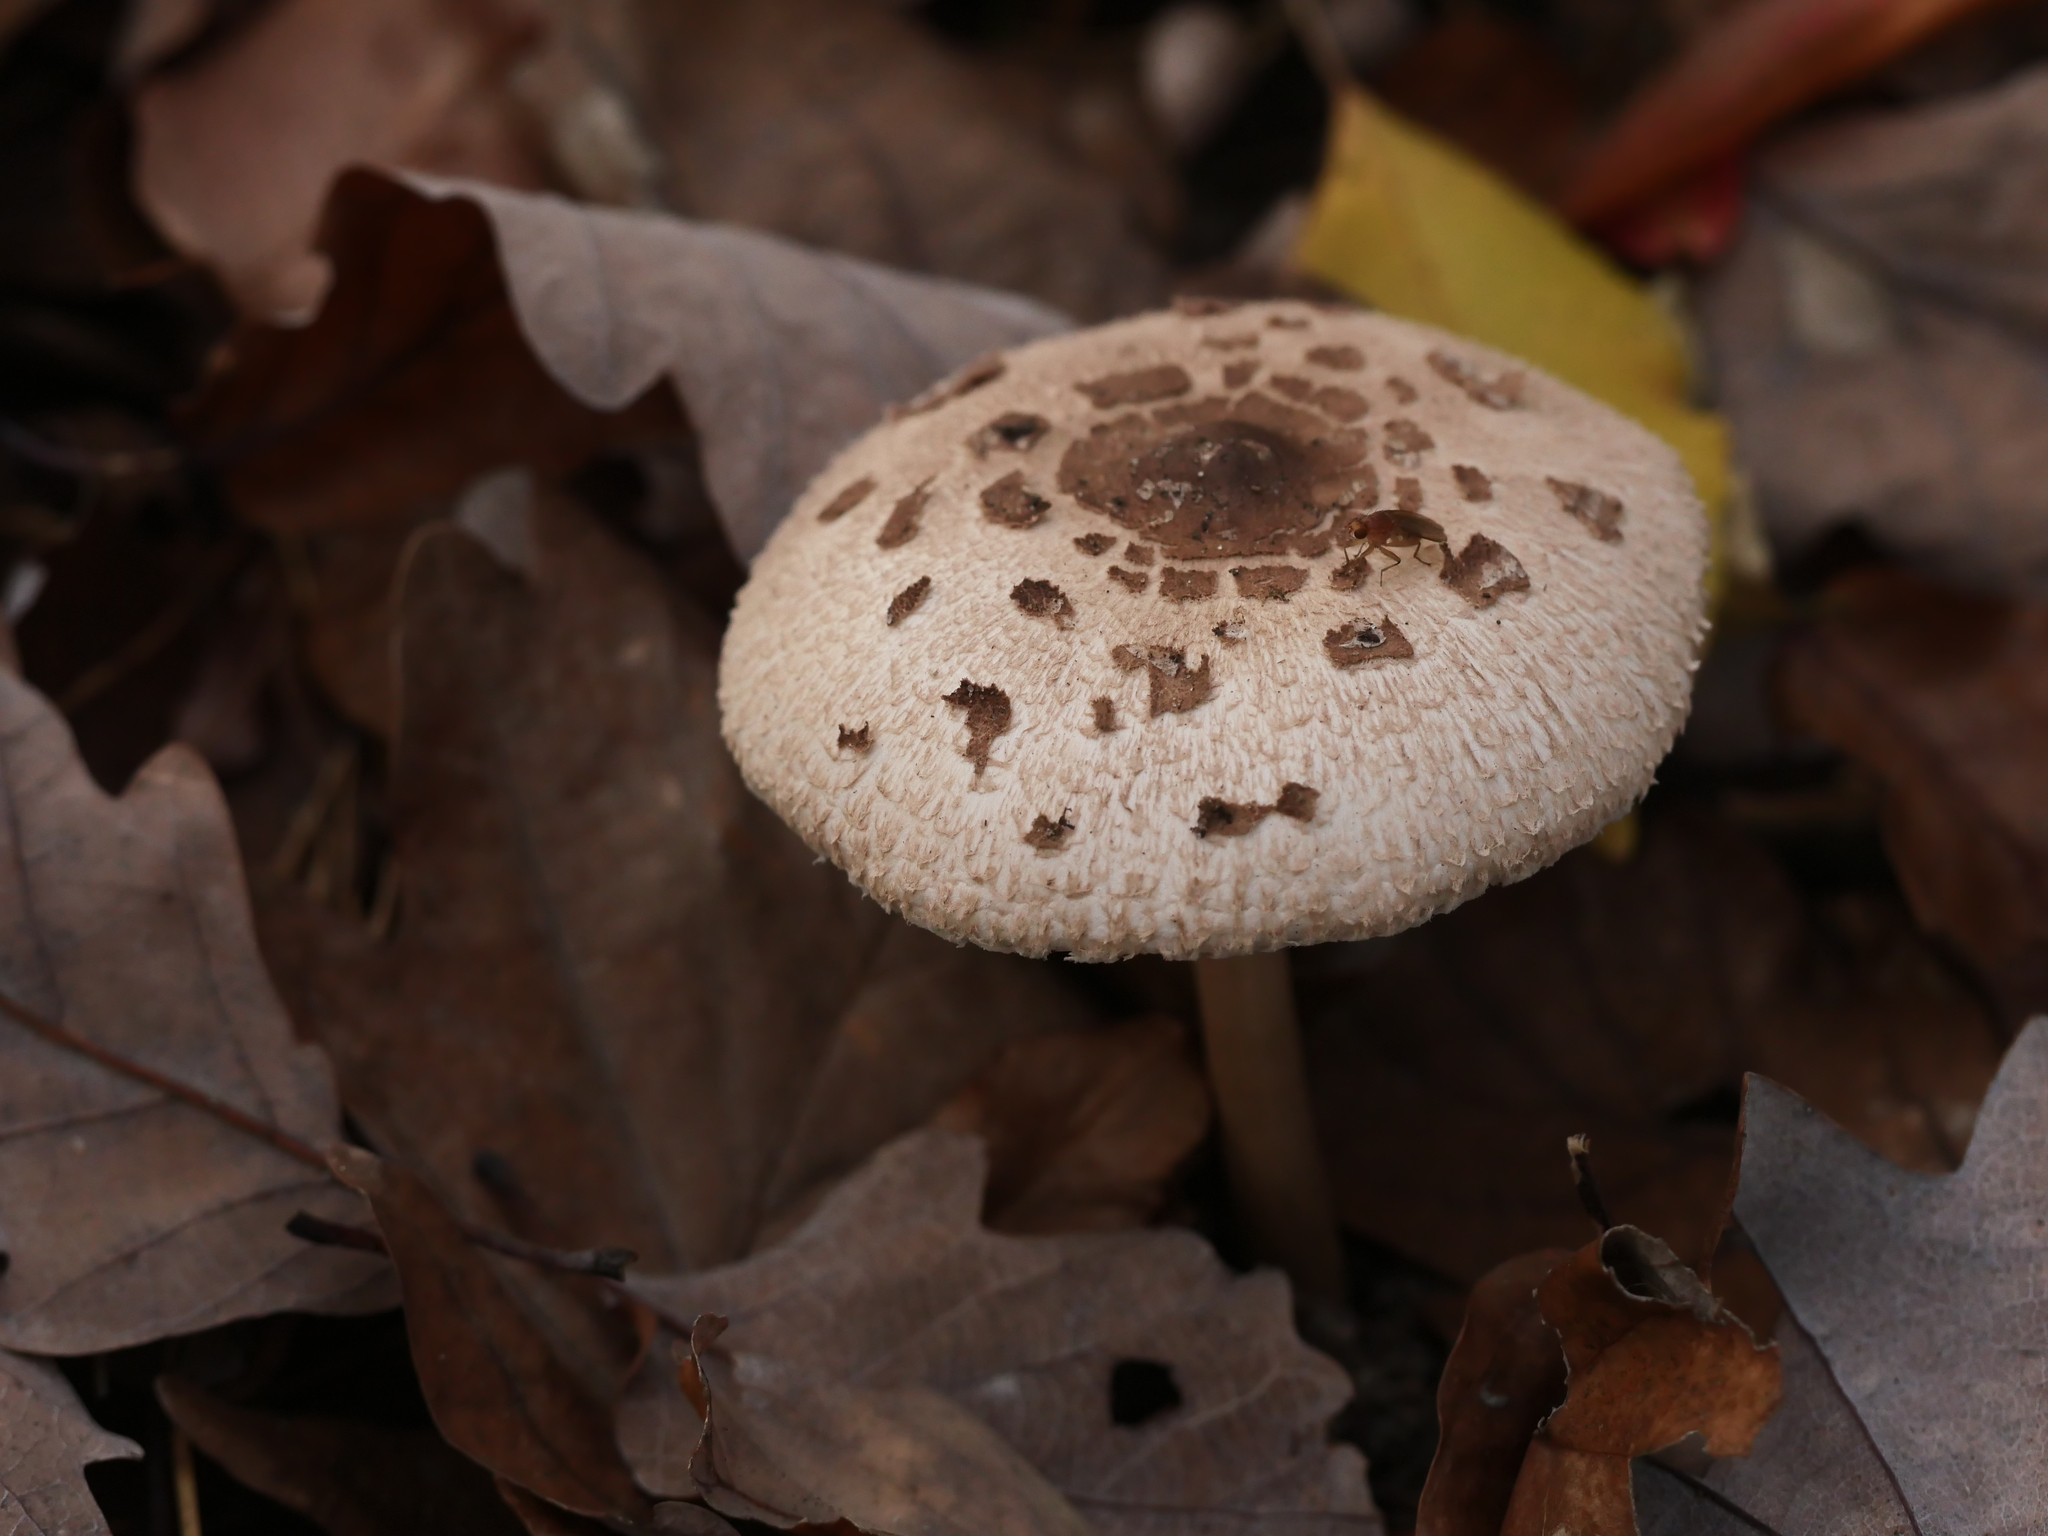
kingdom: Fungi
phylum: Basidiomycota
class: Agaricomycetes
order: Agaricales
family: Agaricaceae
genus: Macrolepiota
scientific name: Macrolepiota procera
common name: Parasol
